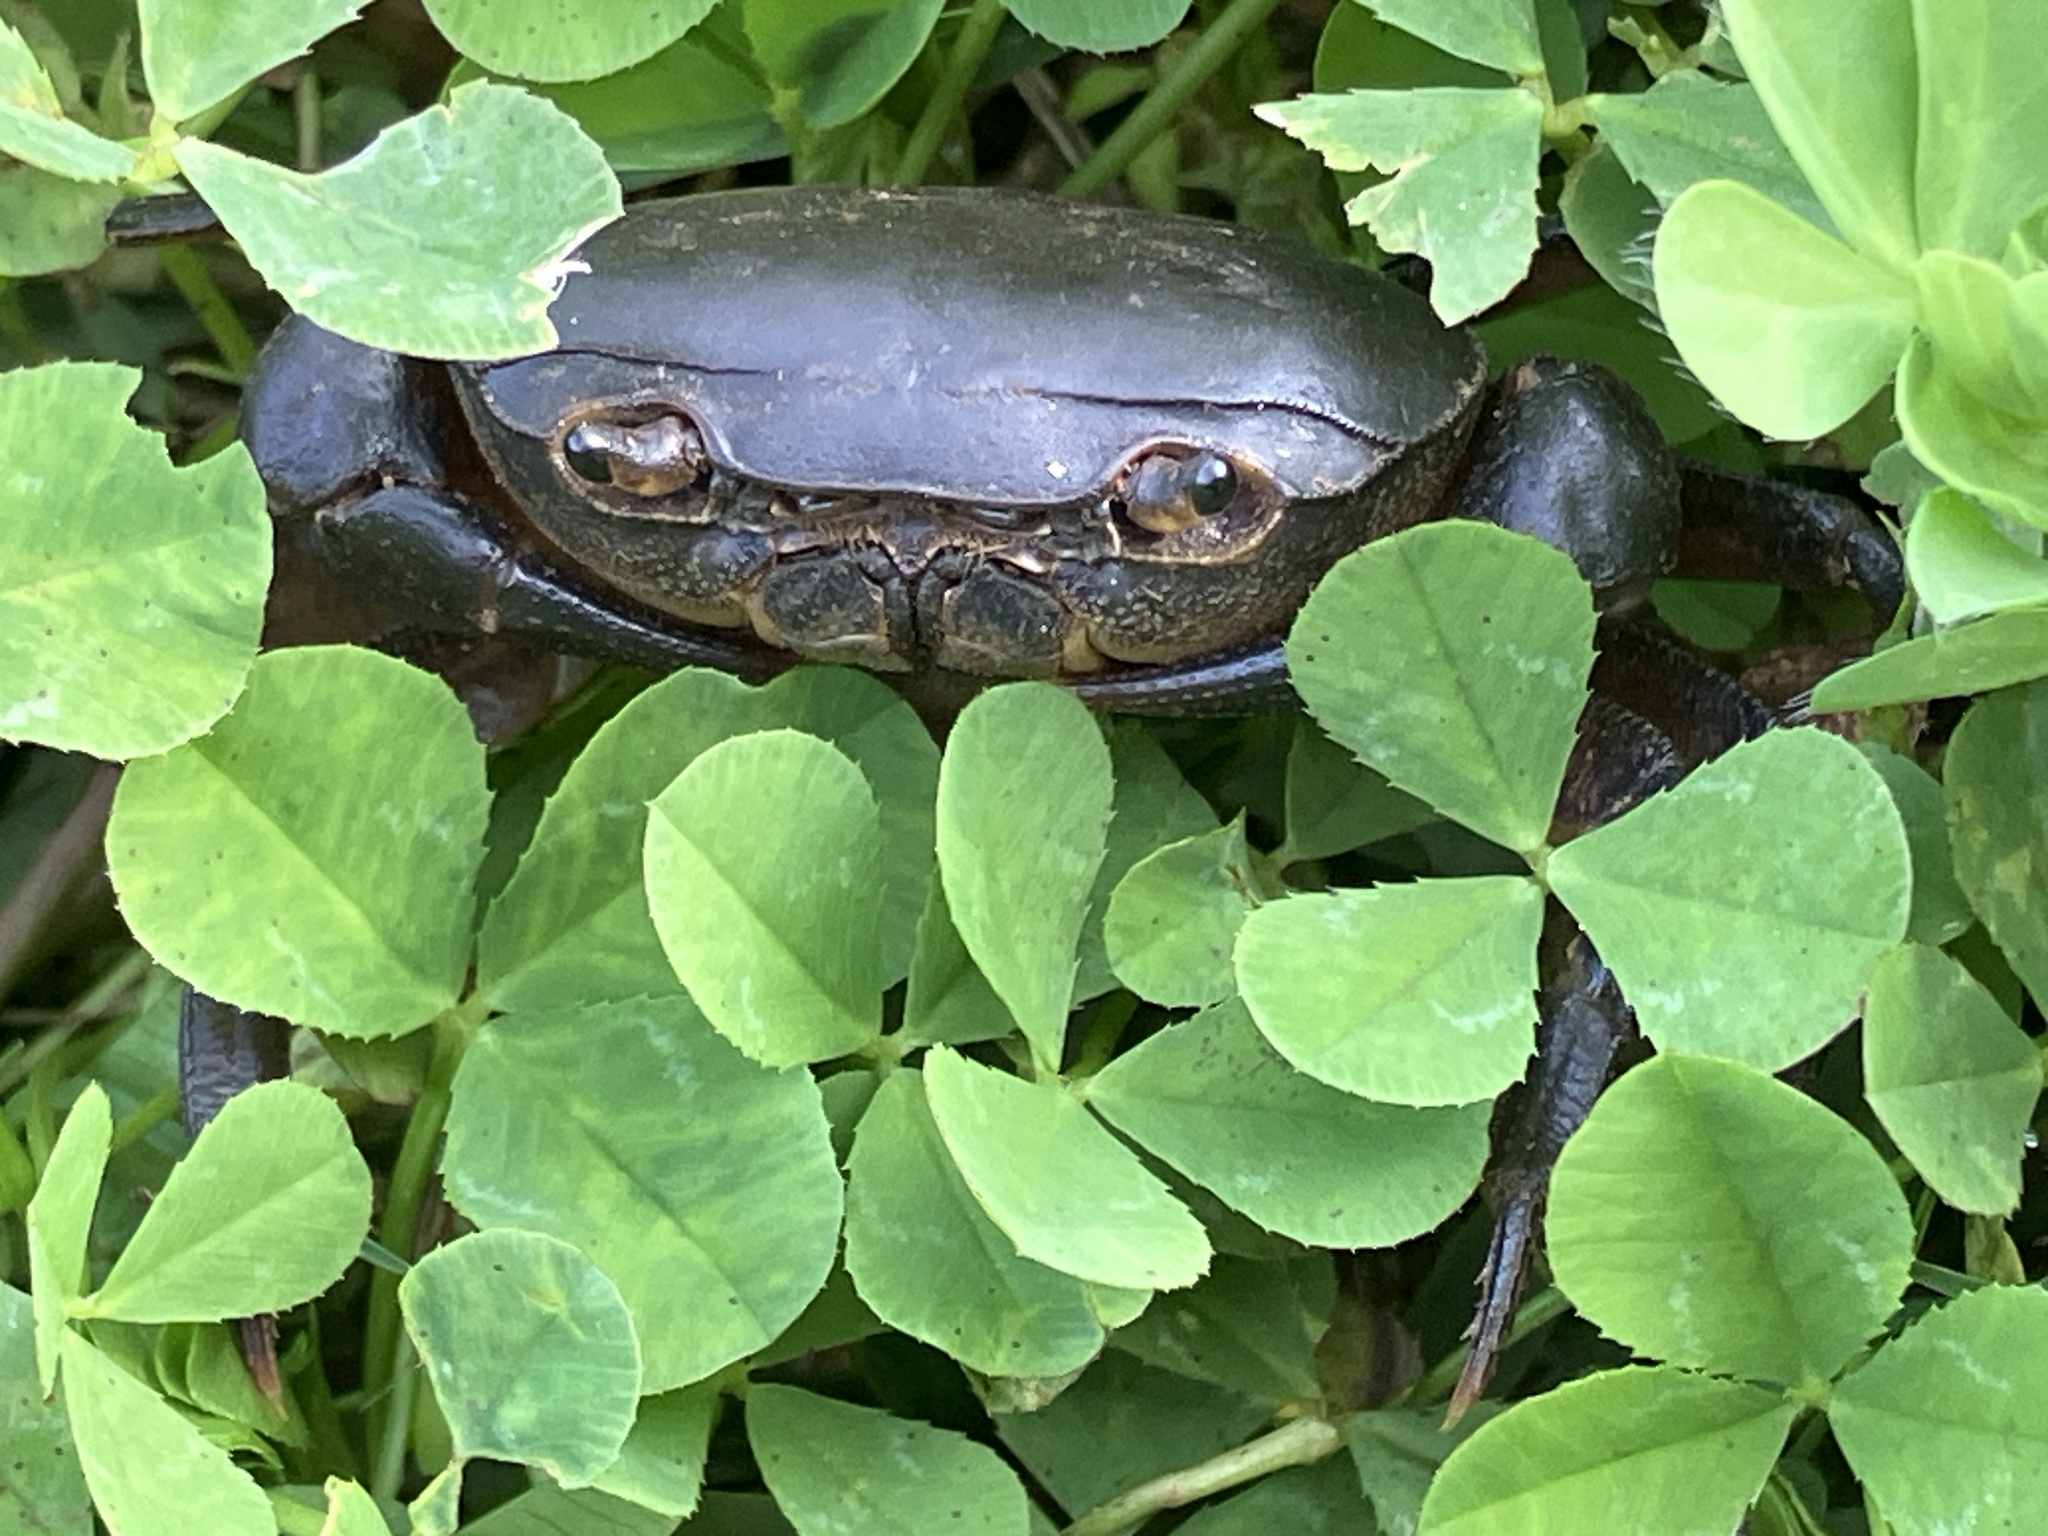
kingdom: Animalia
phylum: Arthropoda
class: Malacostraca
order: Decapoda
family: Potamonautidae
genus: Potamonautes
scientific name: Potamonautes perlatus
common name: Cape river crab
